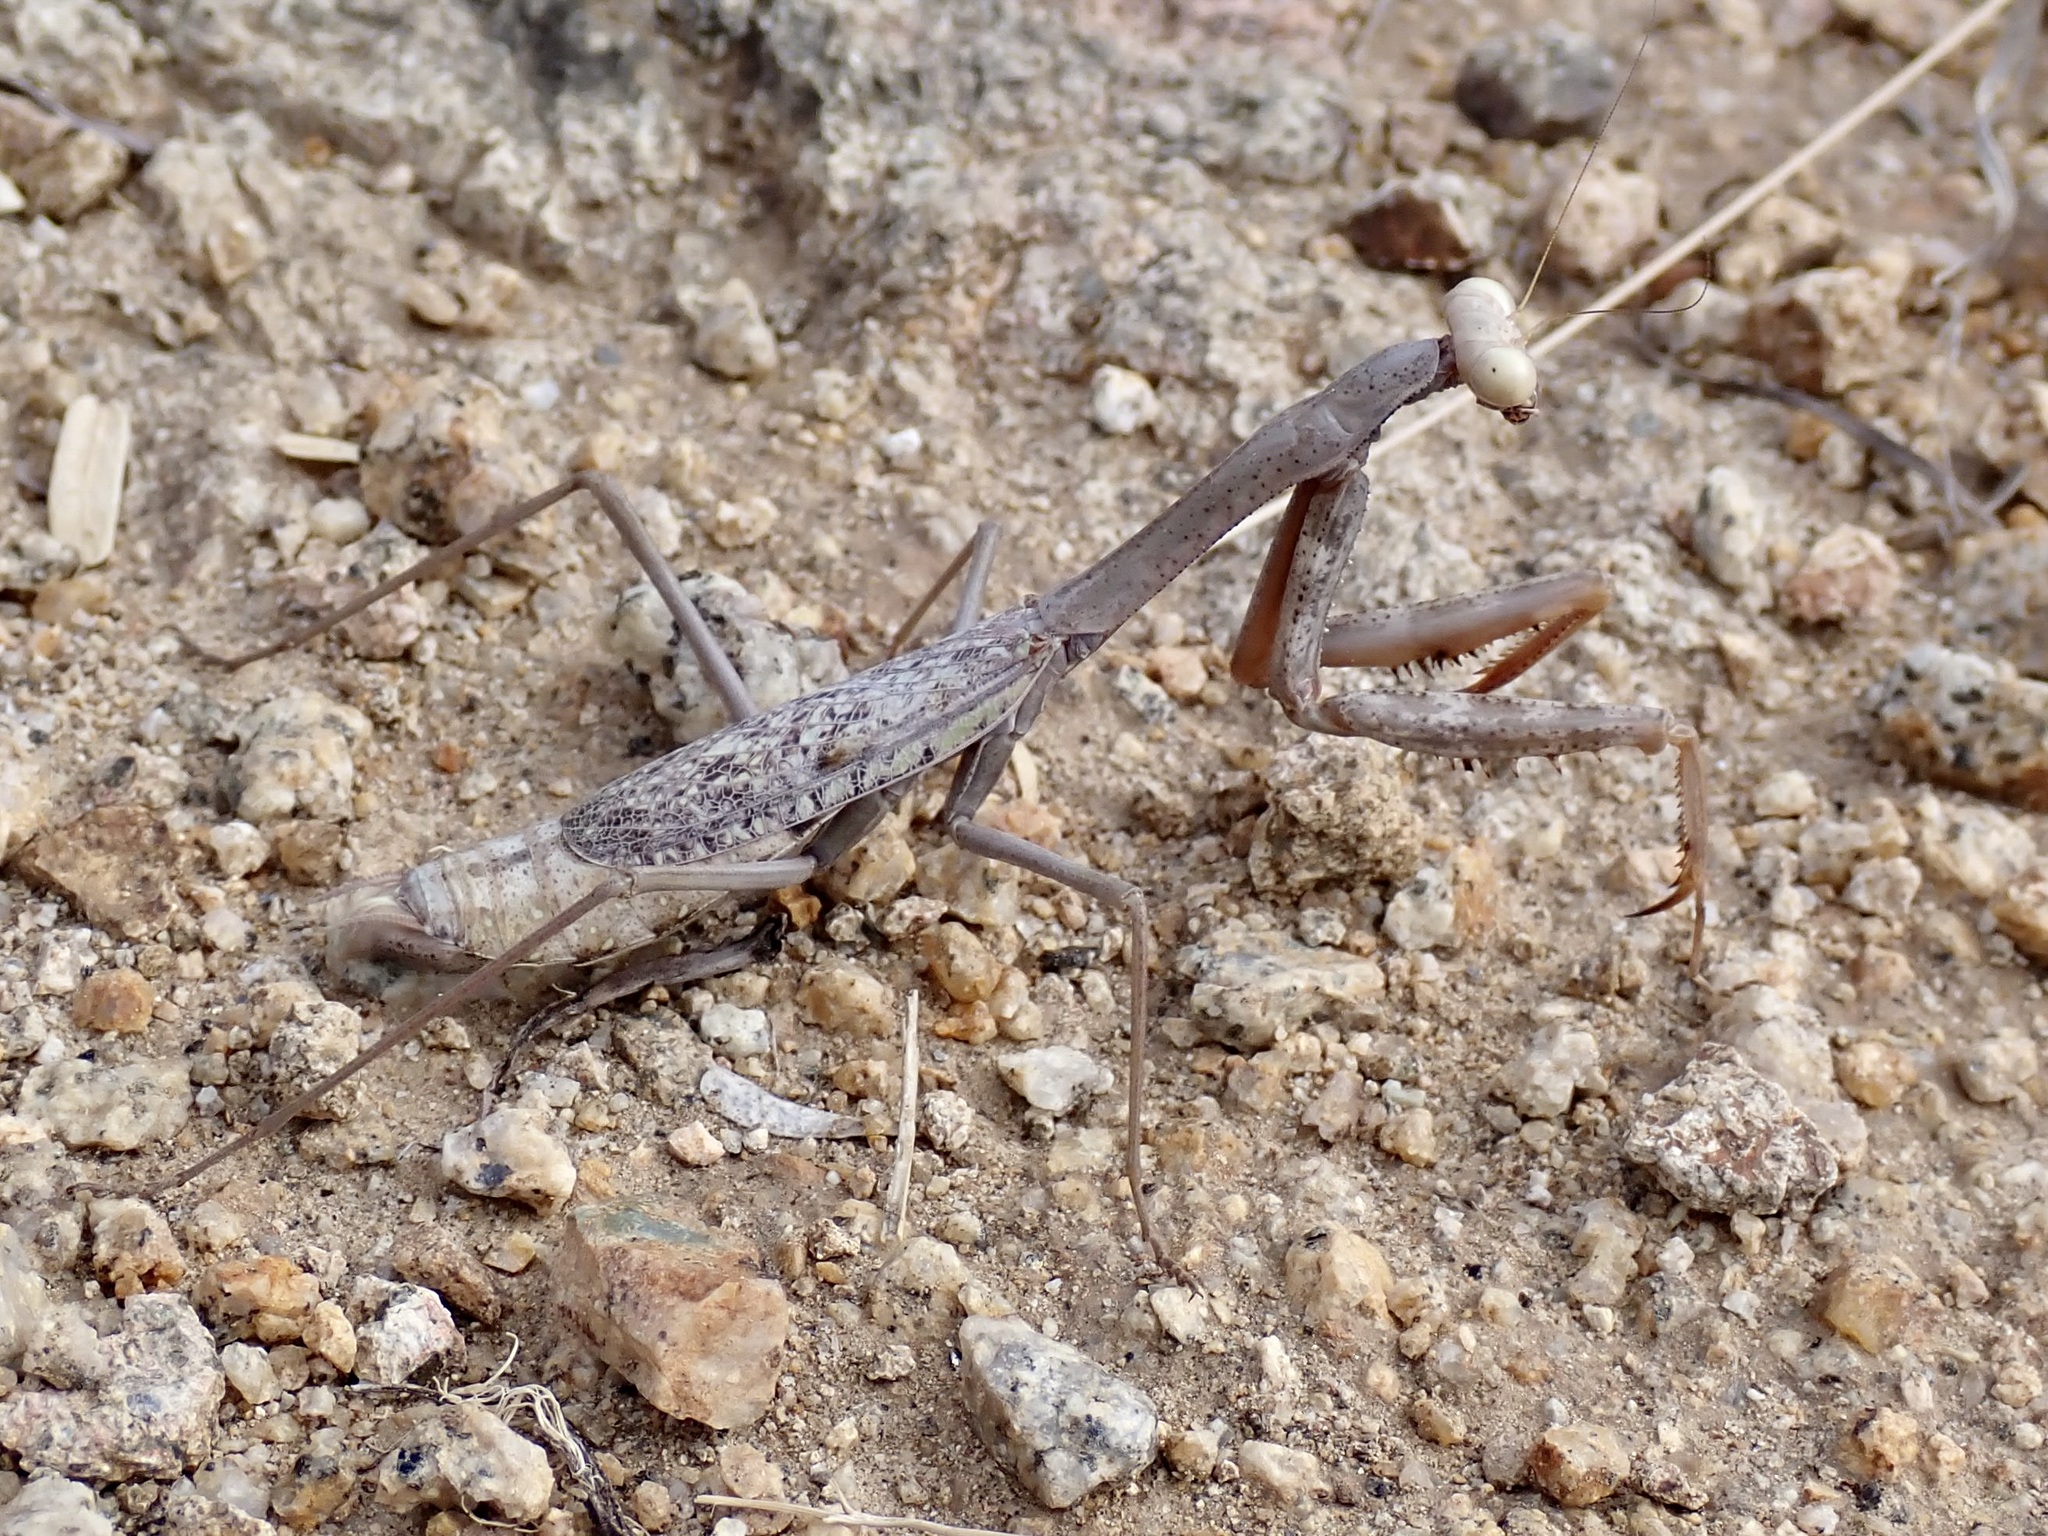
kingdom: Animalia
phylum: Arthropoda
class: Insecta
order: Mantodea
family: Mantidae
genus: Stagmomantis
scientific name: Stagmomantis californica
